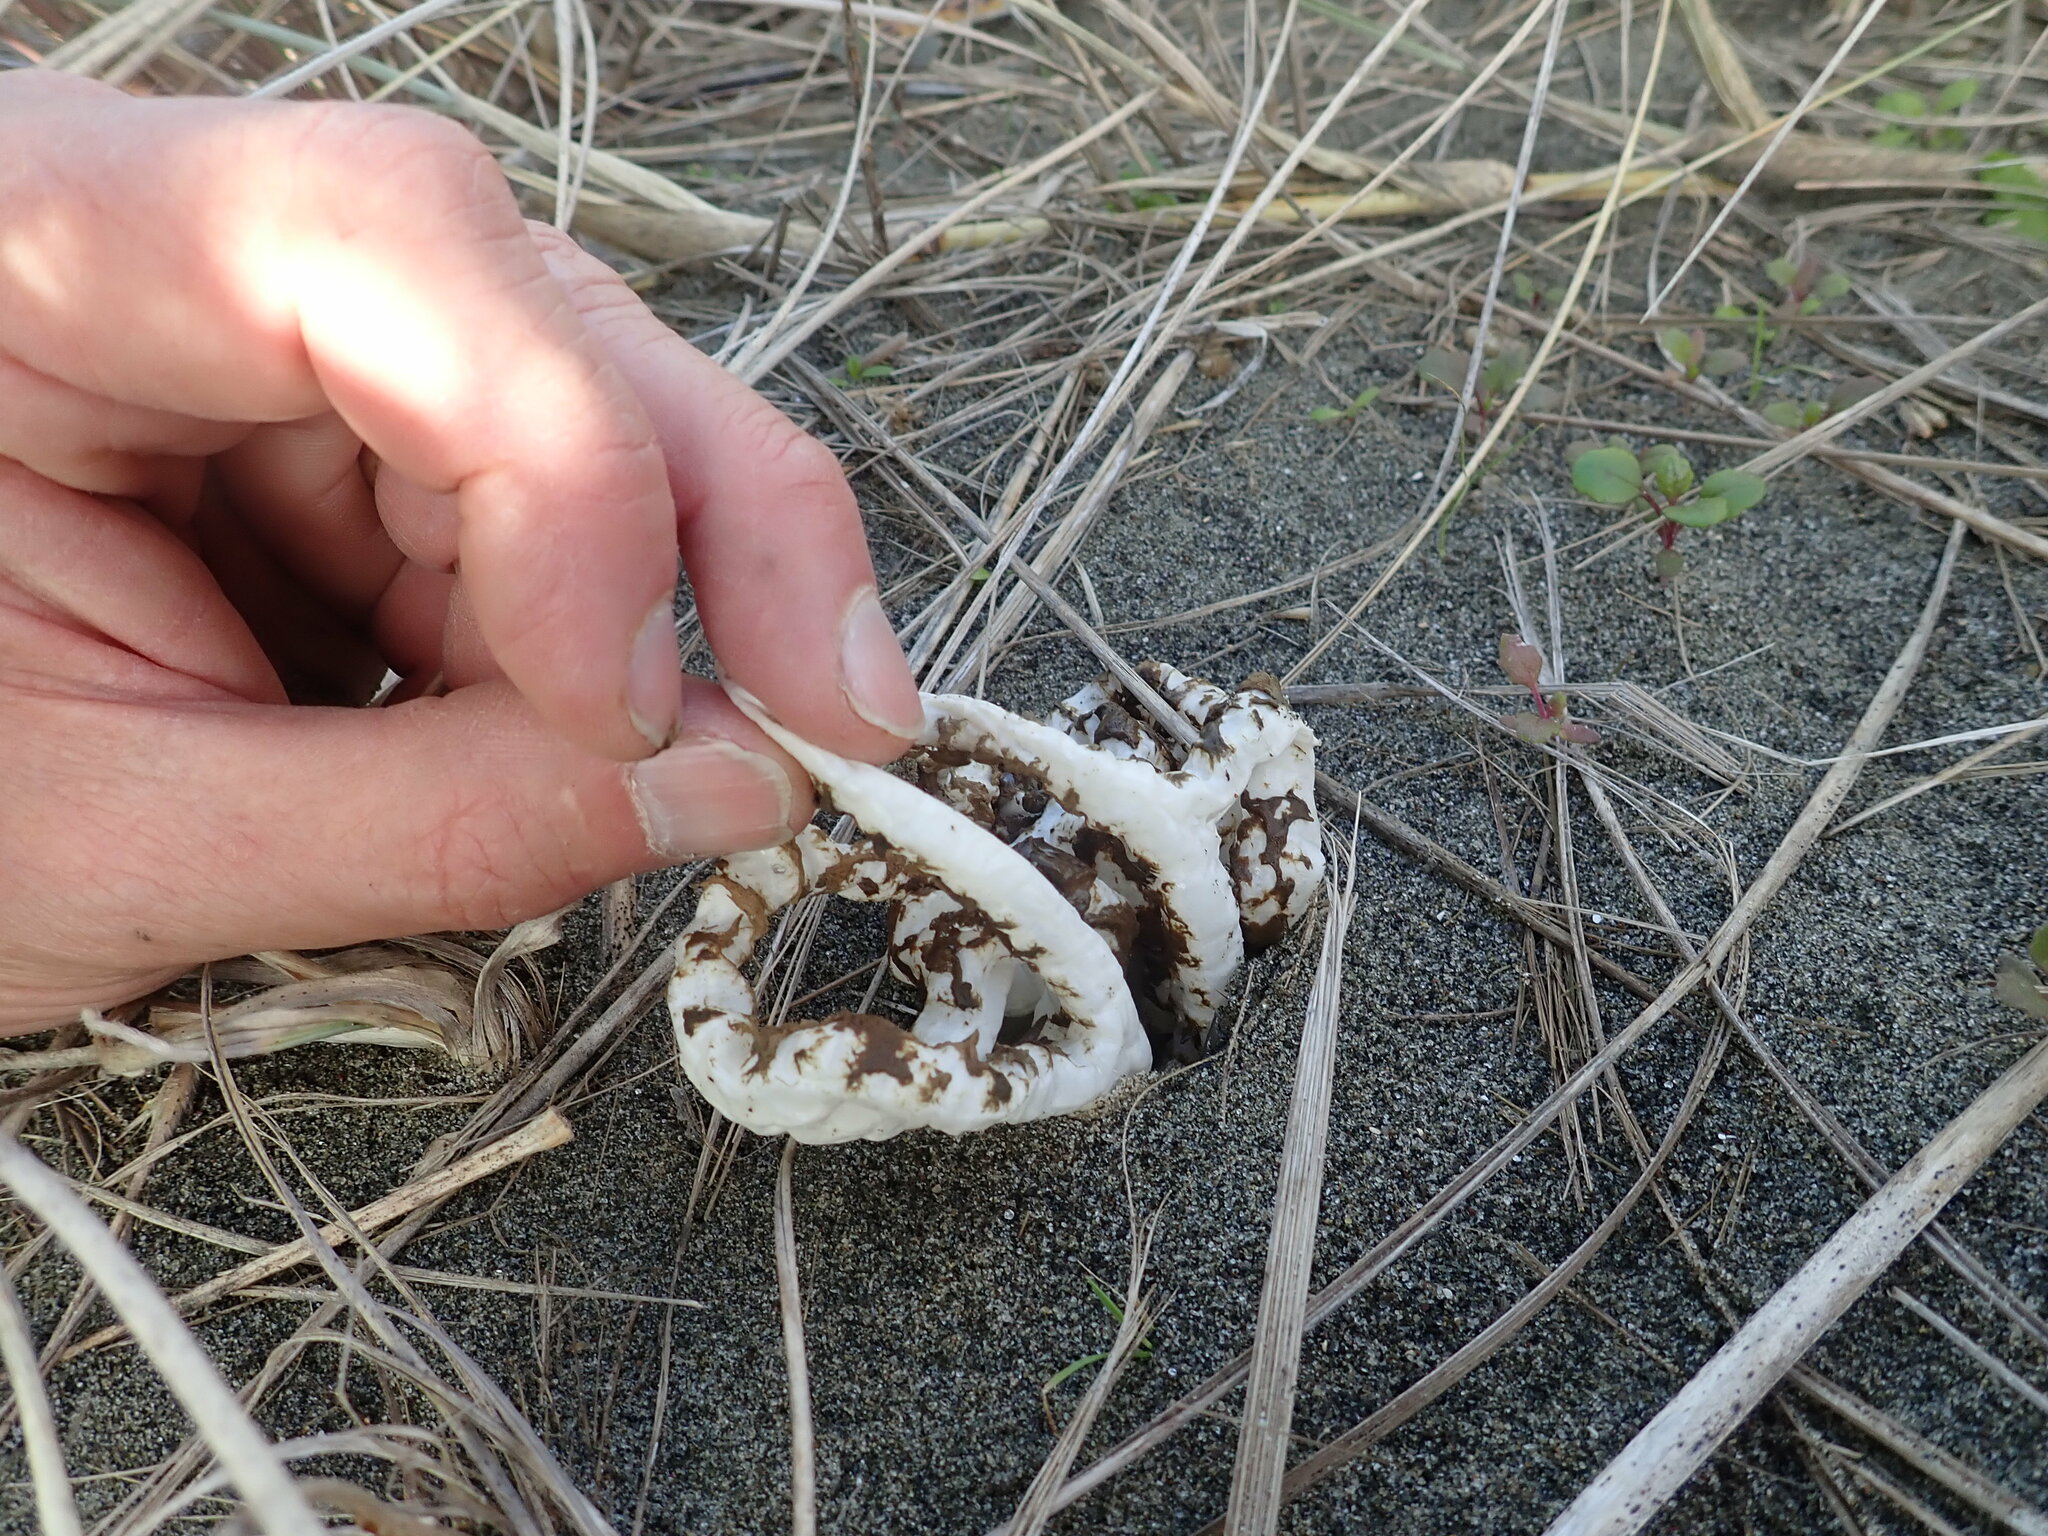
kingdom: Fungi
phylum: Basidiomycota
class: Agaricomycetes
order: Phallales
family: Phallaceae
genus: Ileodictyon
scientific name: Ileodictyon cibarium
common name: Basket fungus
